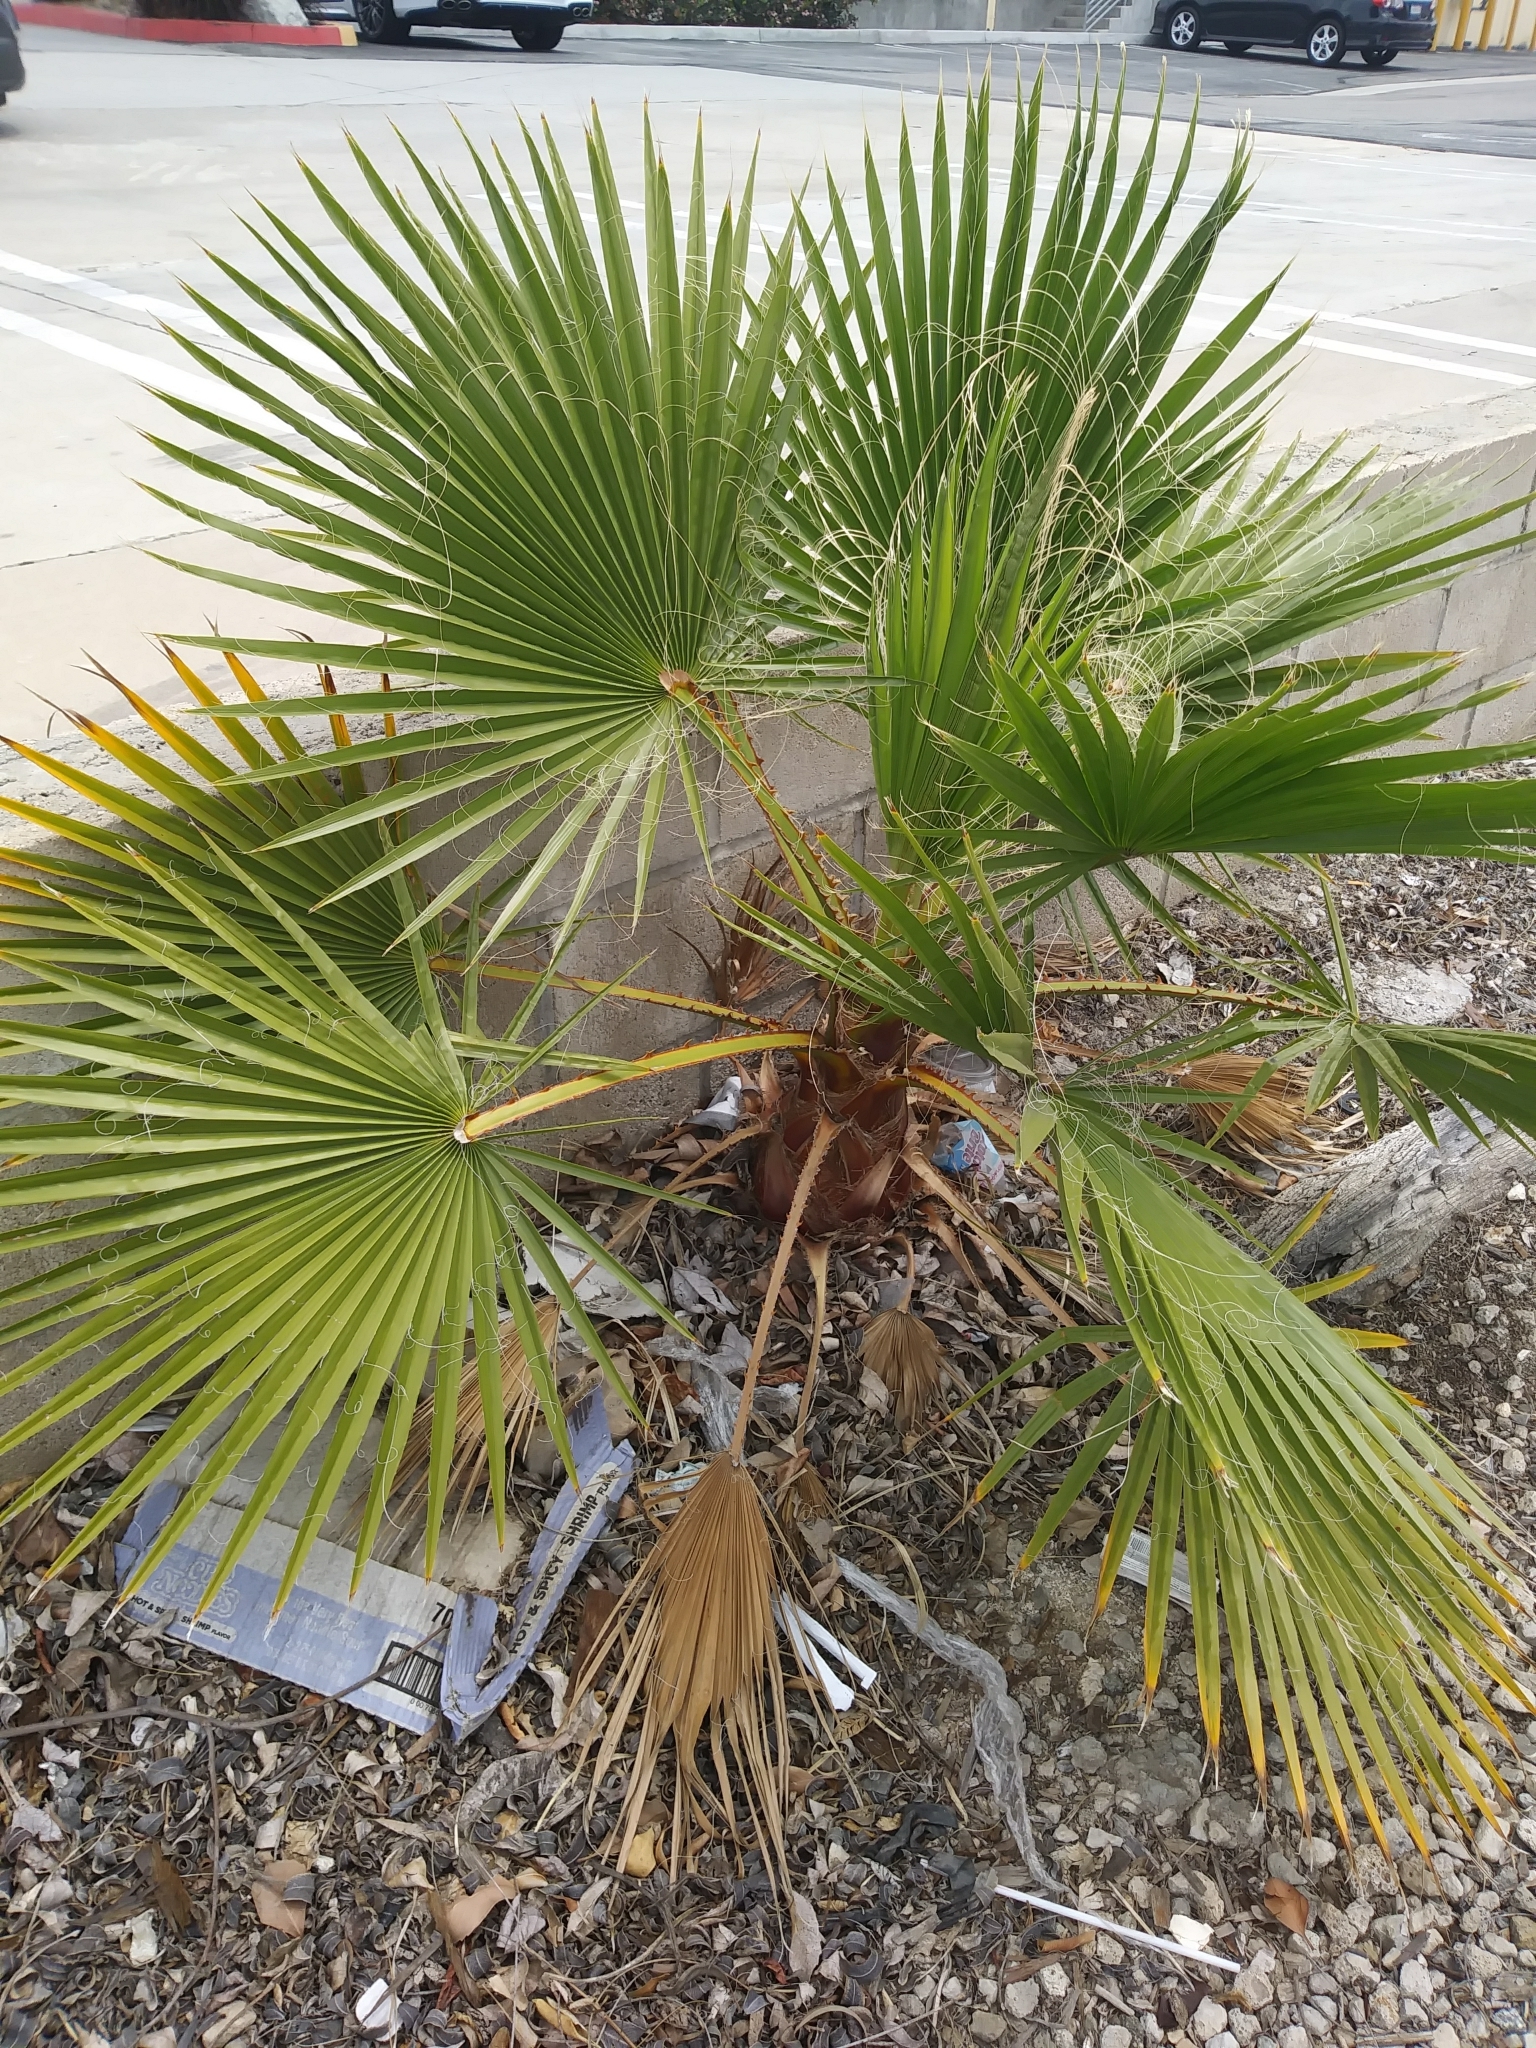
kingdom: Plantae
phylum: Tracheophyta
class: Liliopsida
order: Arecales
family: Arecaceae
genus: Washingtonia
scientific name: Washingtonia robusta
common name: Mexican fan palm
